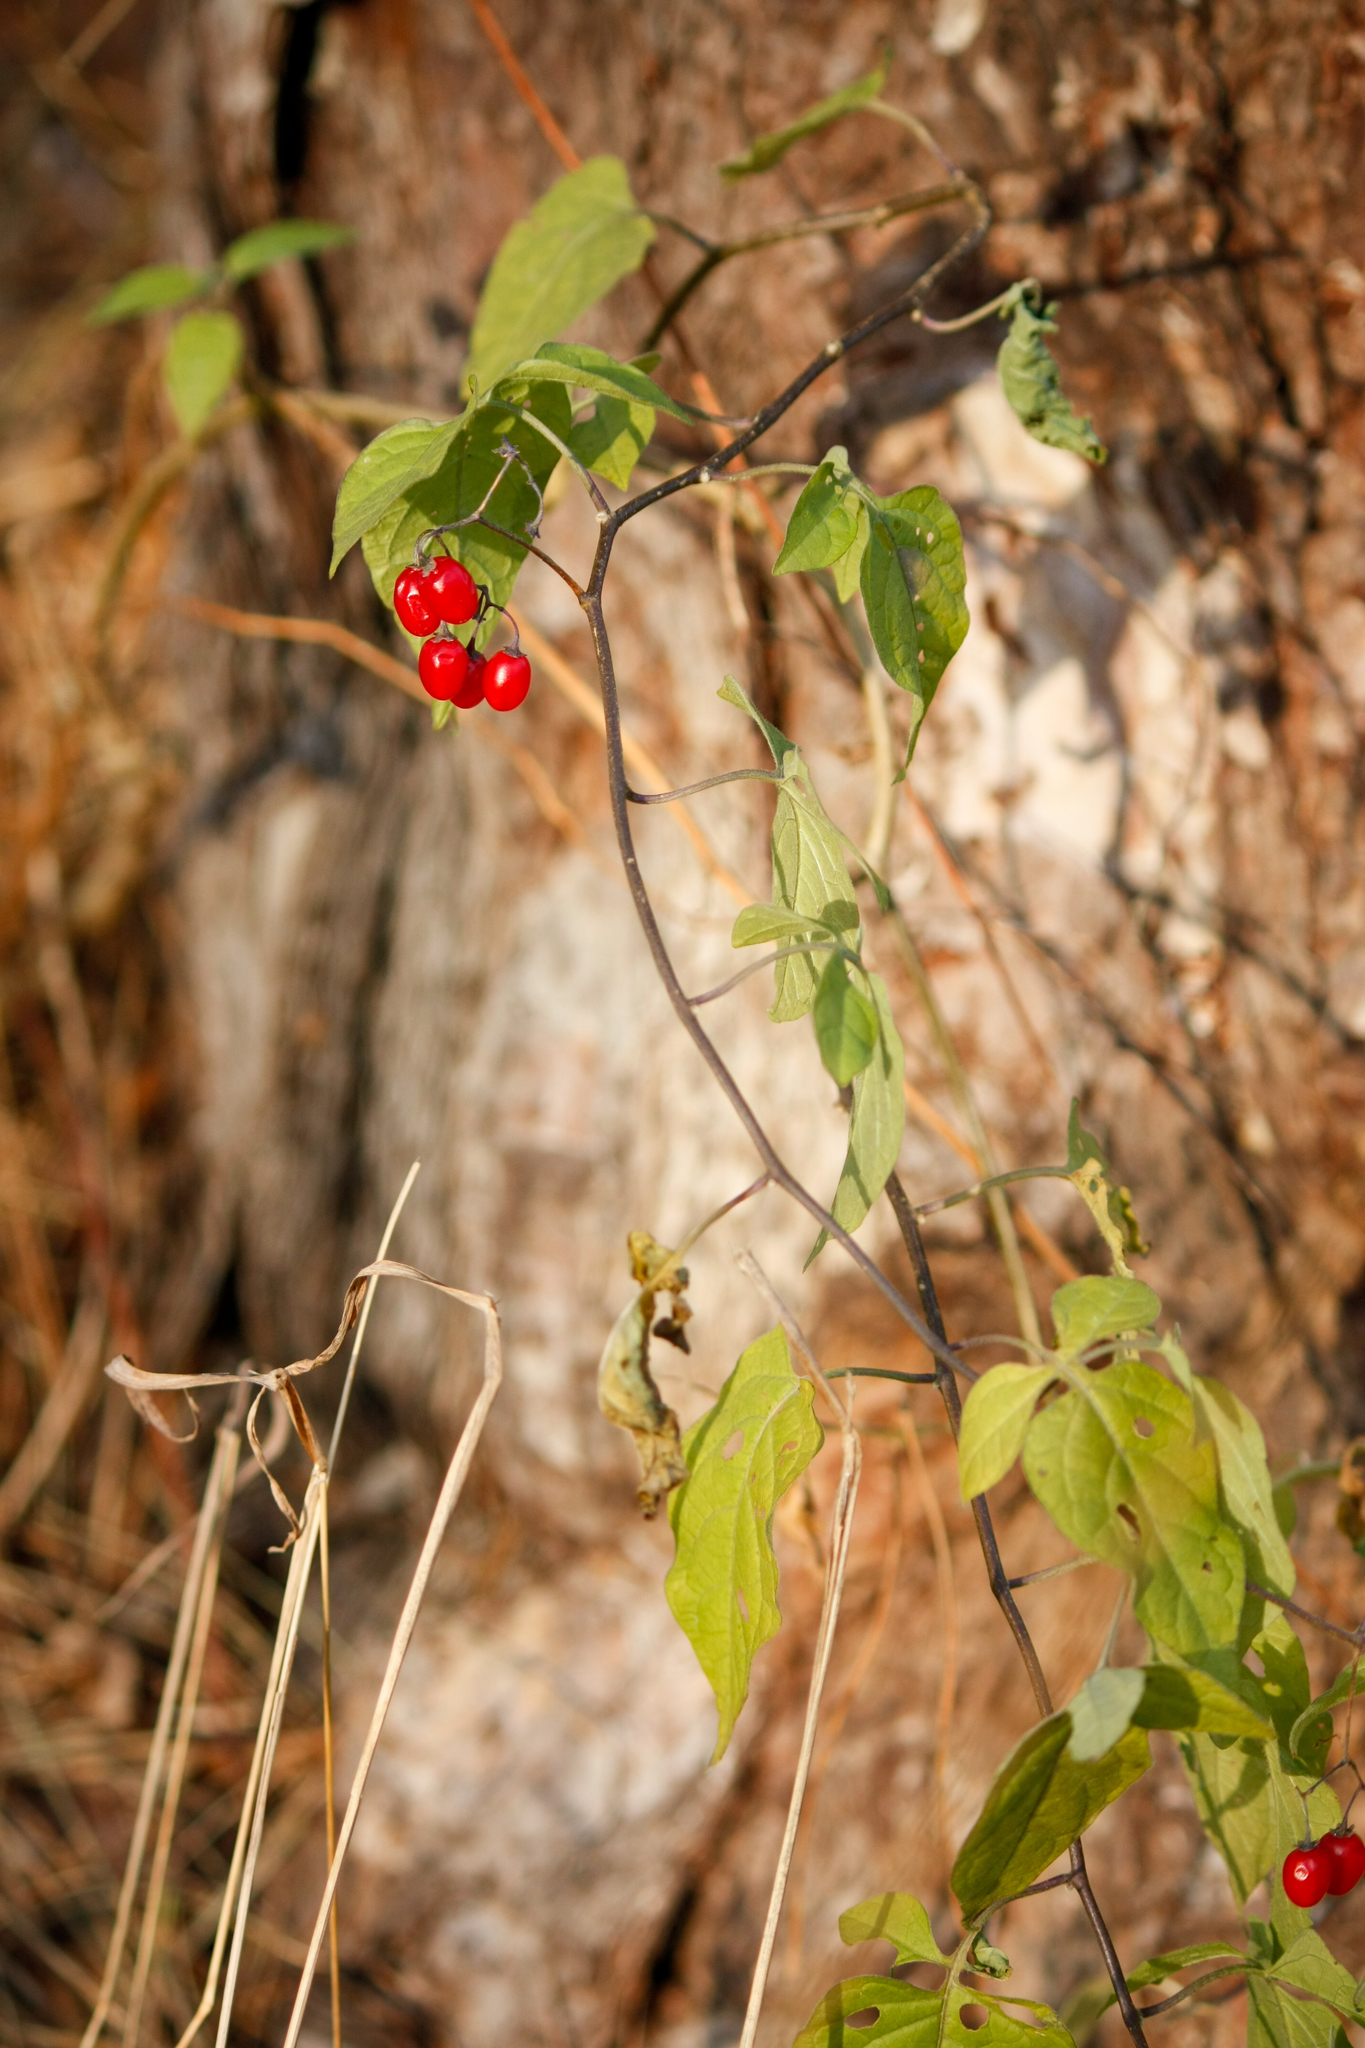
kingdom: Plantae
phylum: Tracheophyta
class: Magnoliopsida
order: Solanales
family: Solanaceae
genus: Solanum
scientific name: Solanum dulcamara
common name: Climbing nightshade
